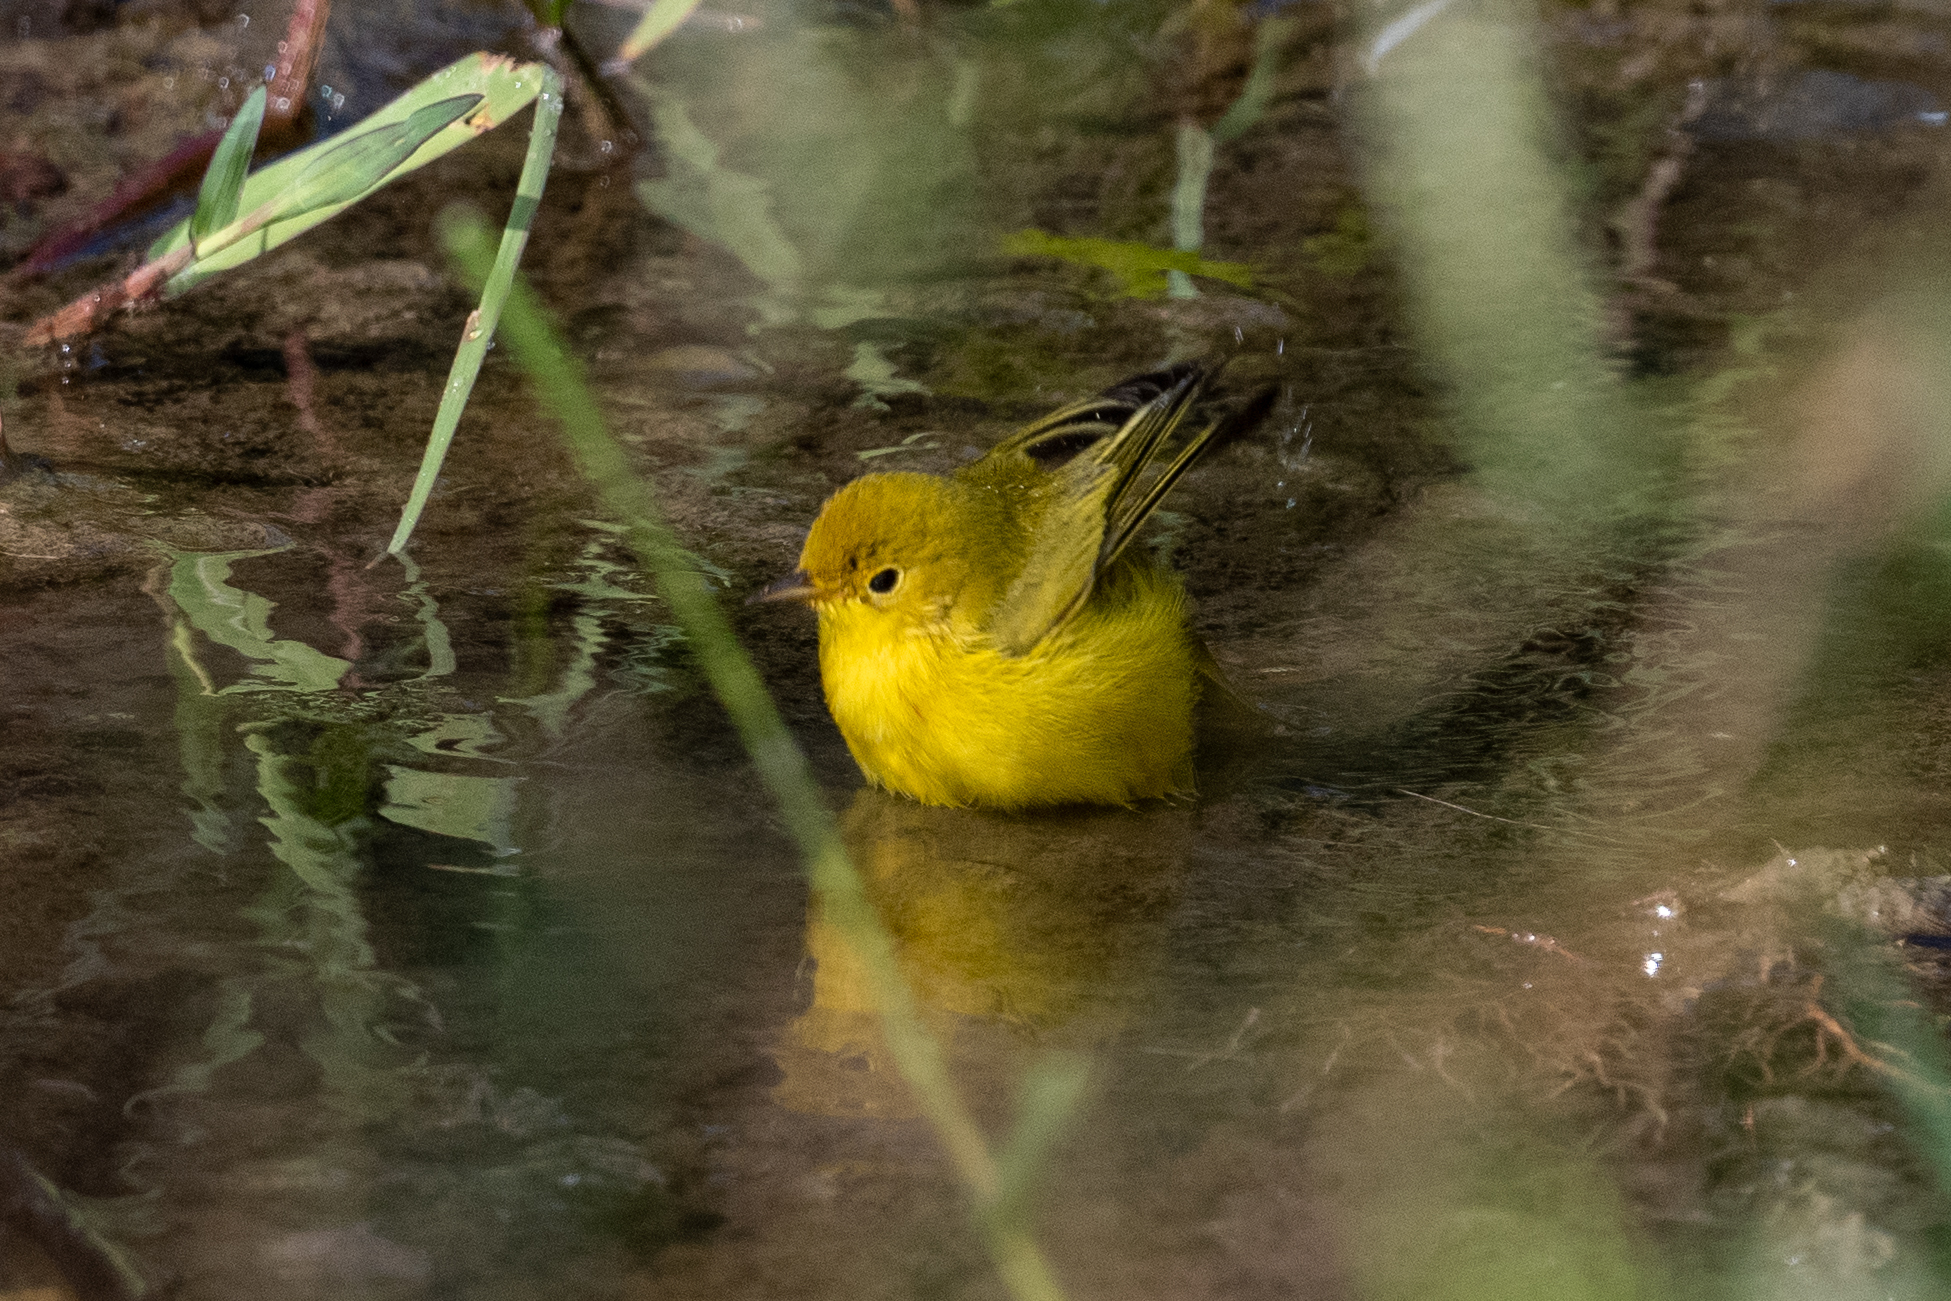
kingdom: Animalia
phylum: Chordata
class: Aves
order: Passeriformes
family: Parulidae
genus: Setophaga
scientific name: Setophaga petechia
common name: Yellow warbler
